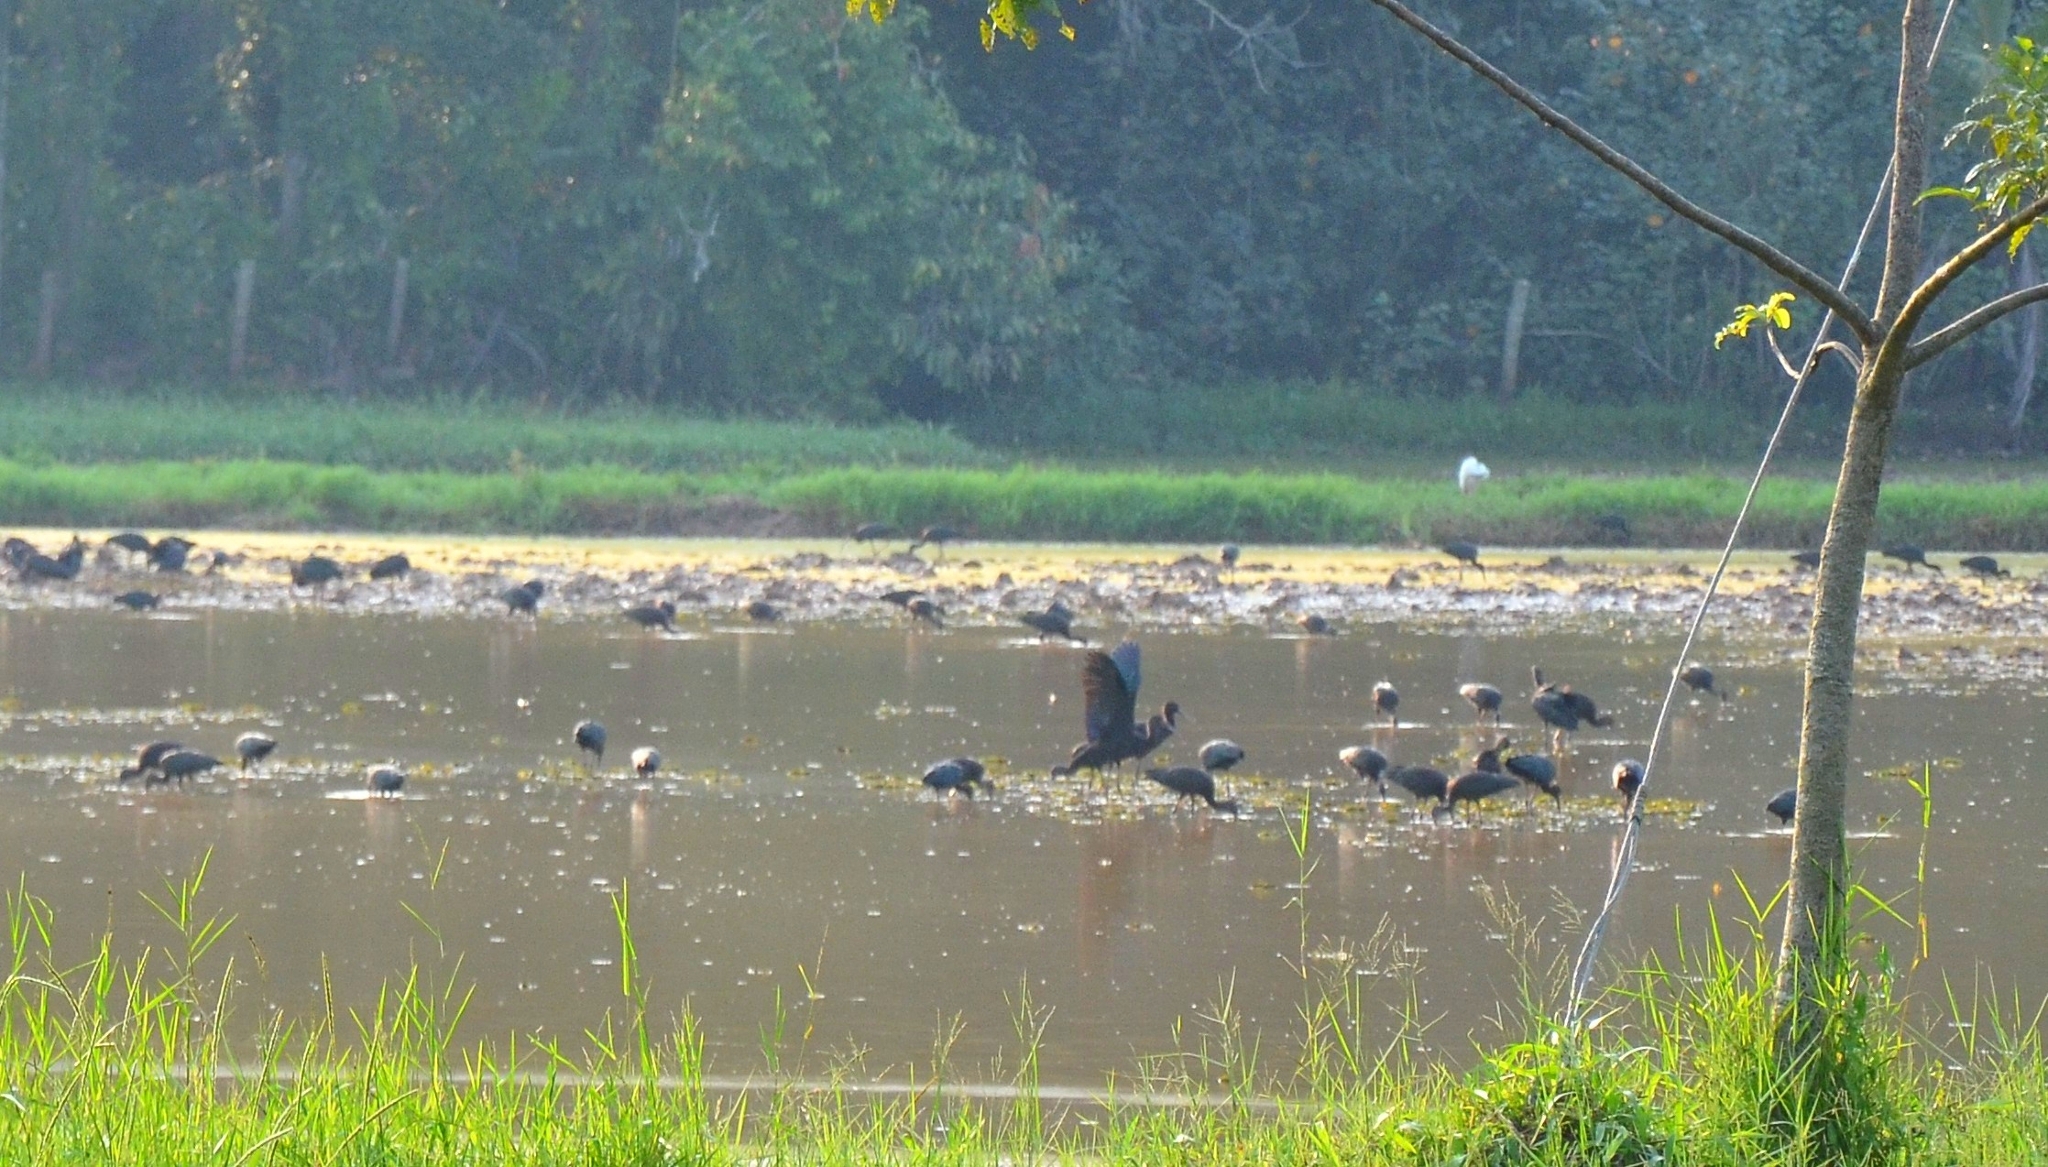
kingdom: Animalia
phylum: Chordata
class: Aves
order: Pelecaniformes
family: Threskiornithidae
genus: Plegadis
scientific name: Plegadis falcinellus
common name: Glossy ibis
